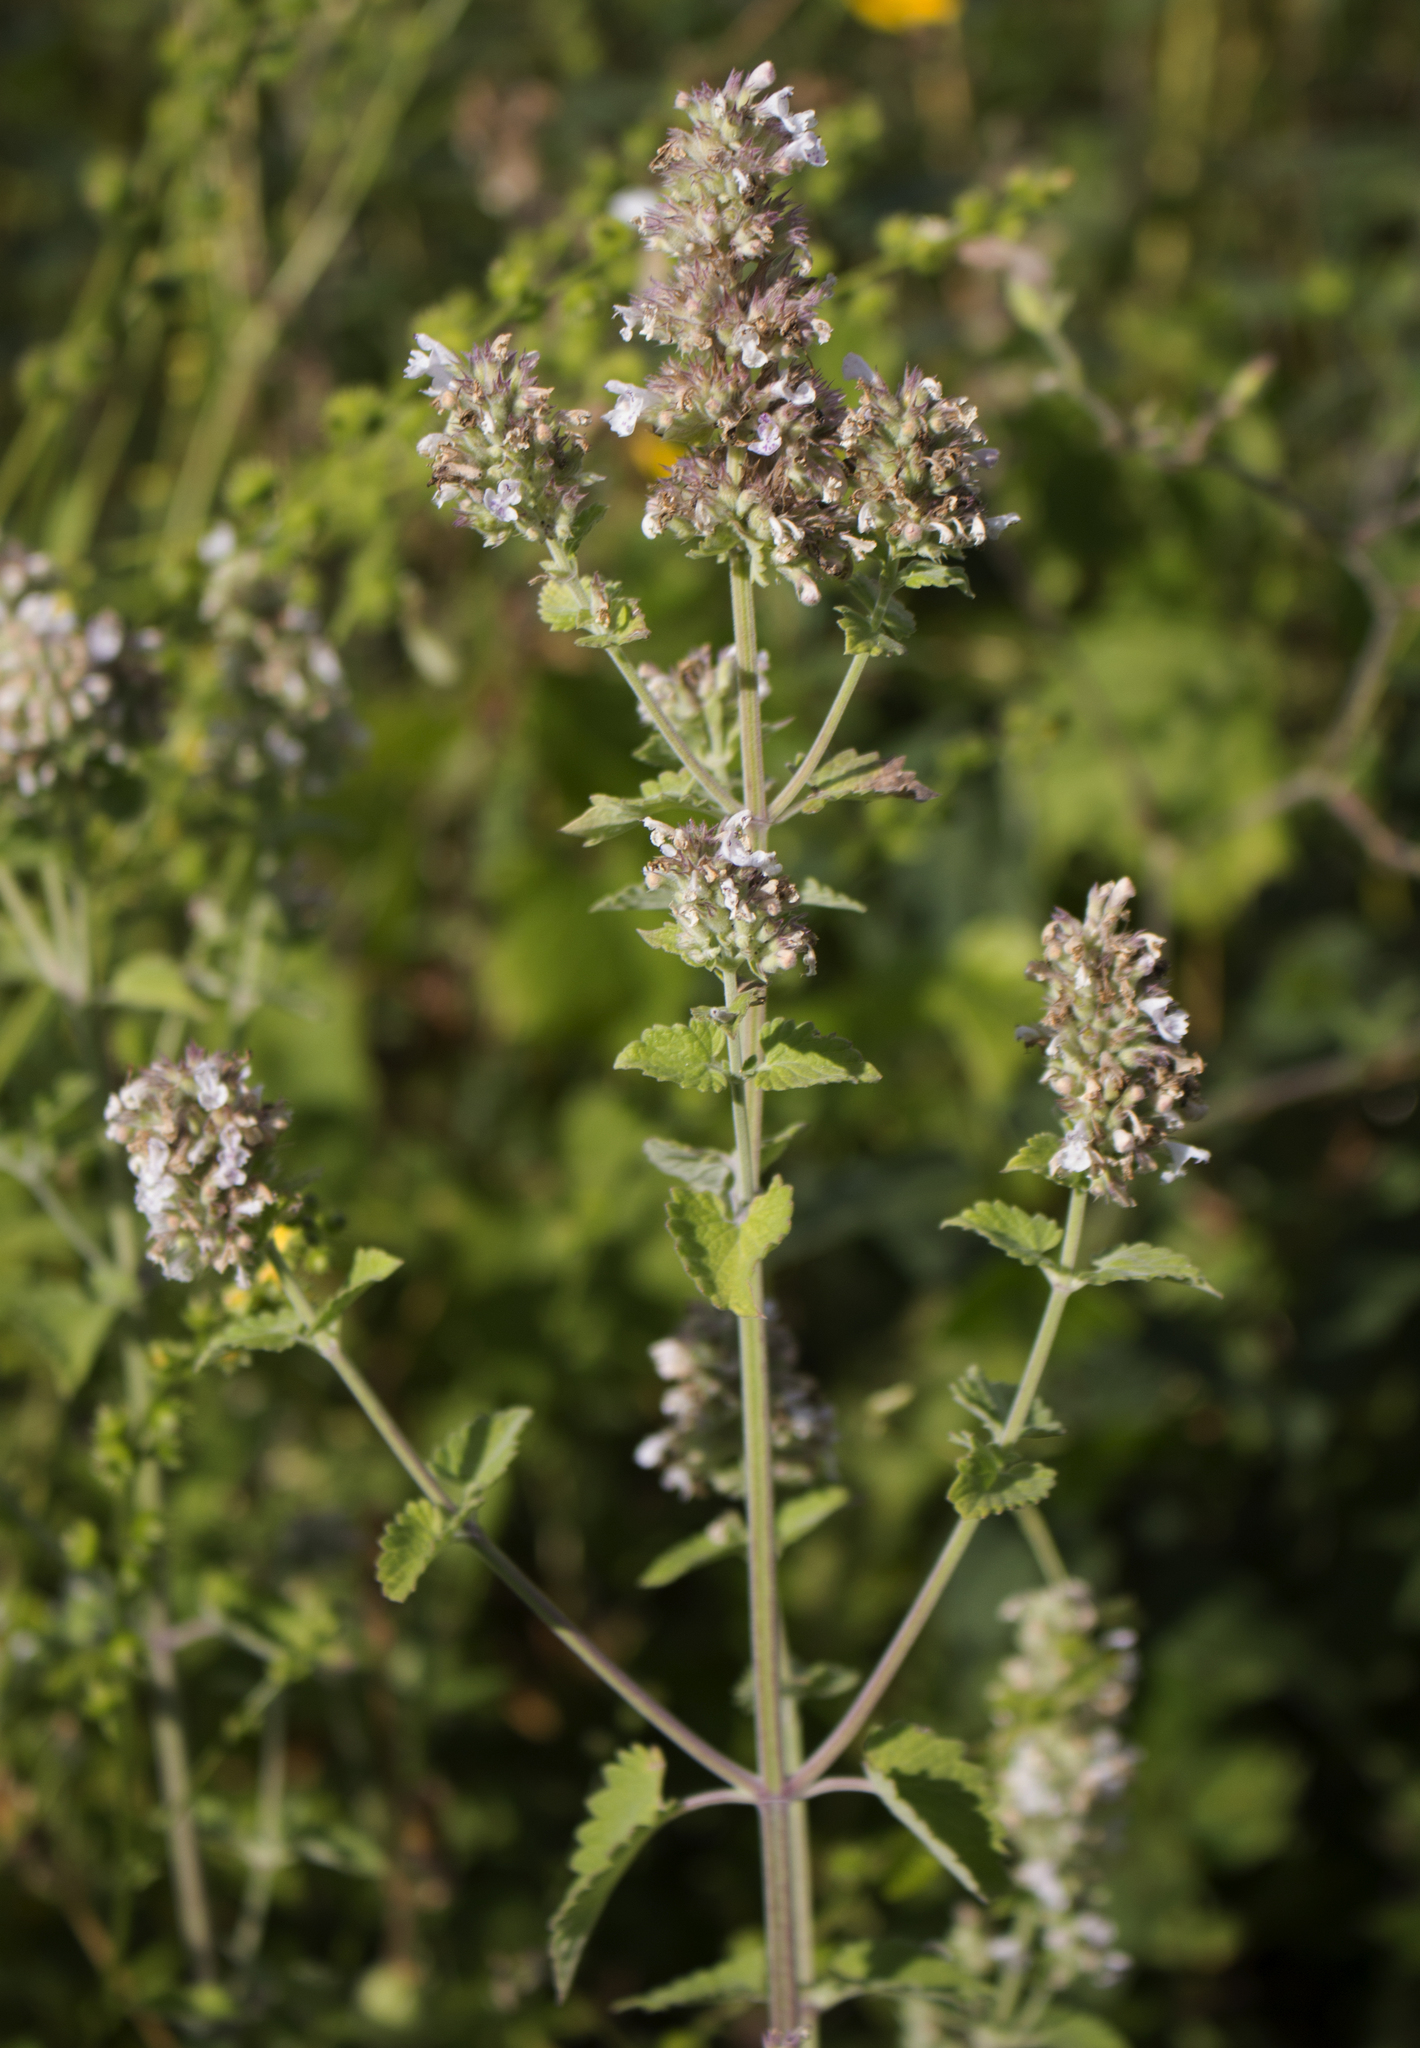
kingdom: Plantae
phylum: Tracheophyta
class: Magnoliopsida
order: Lamiales
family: Lamiaceae
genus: Nepeta
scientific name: Nepeta cataria
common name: Catnip
